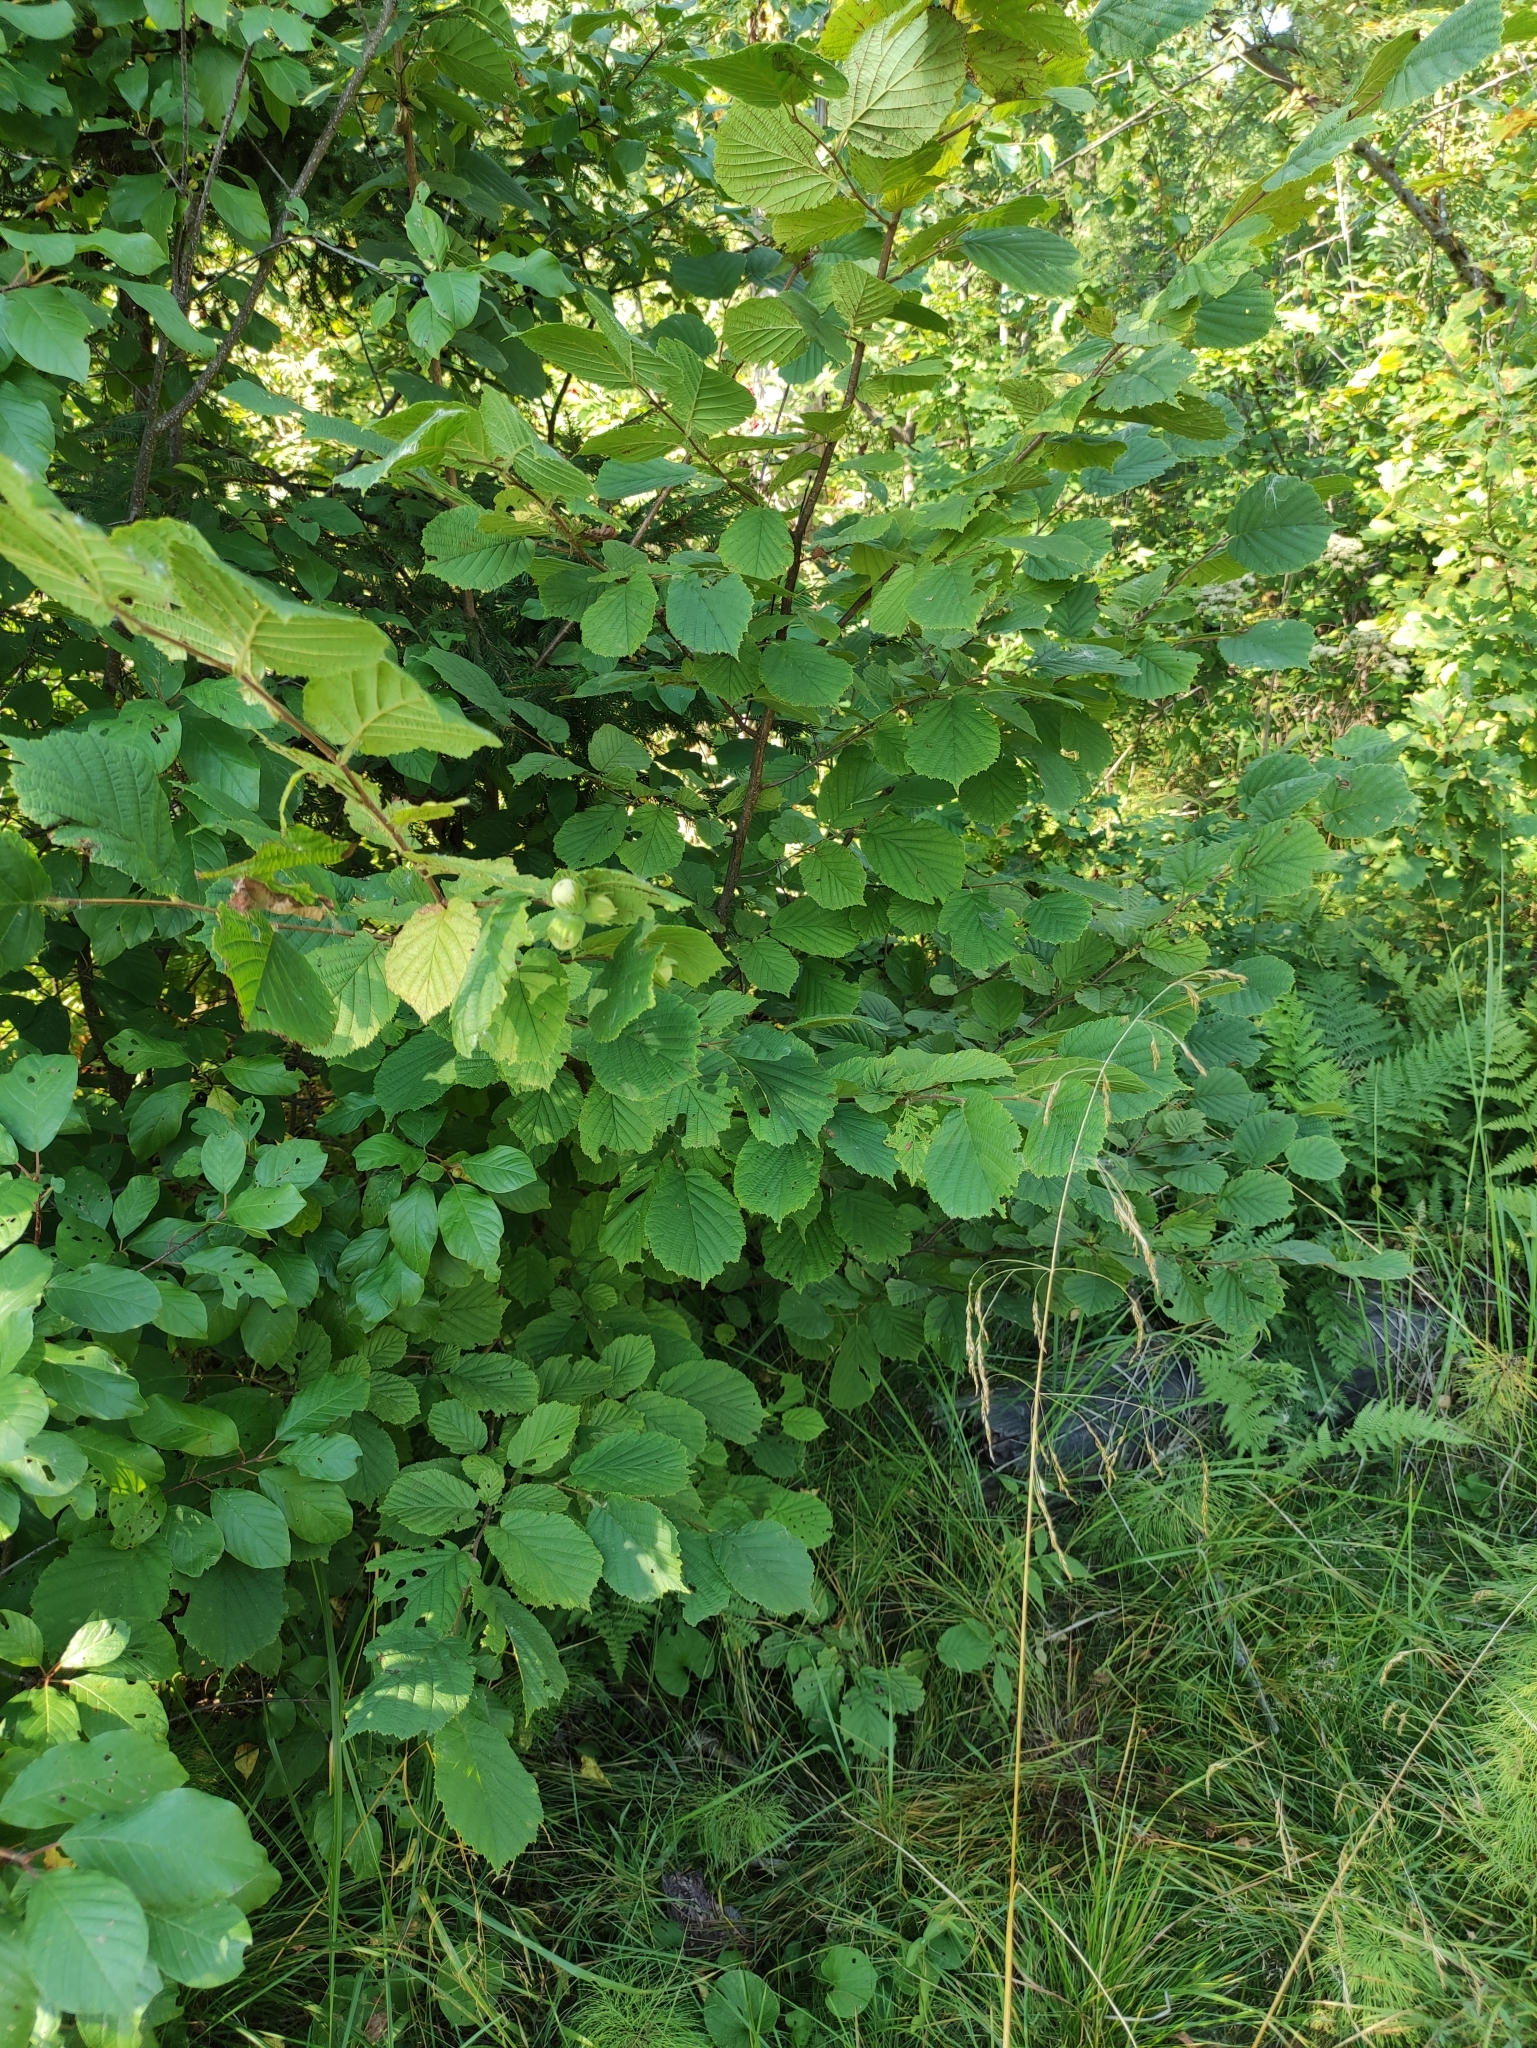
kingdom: Plantae
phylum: Tracheophyta
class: Magnoliopsida
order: Fagales
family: Betulaceae
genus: Corylus
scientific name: Corylus avellana
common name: European hazel
